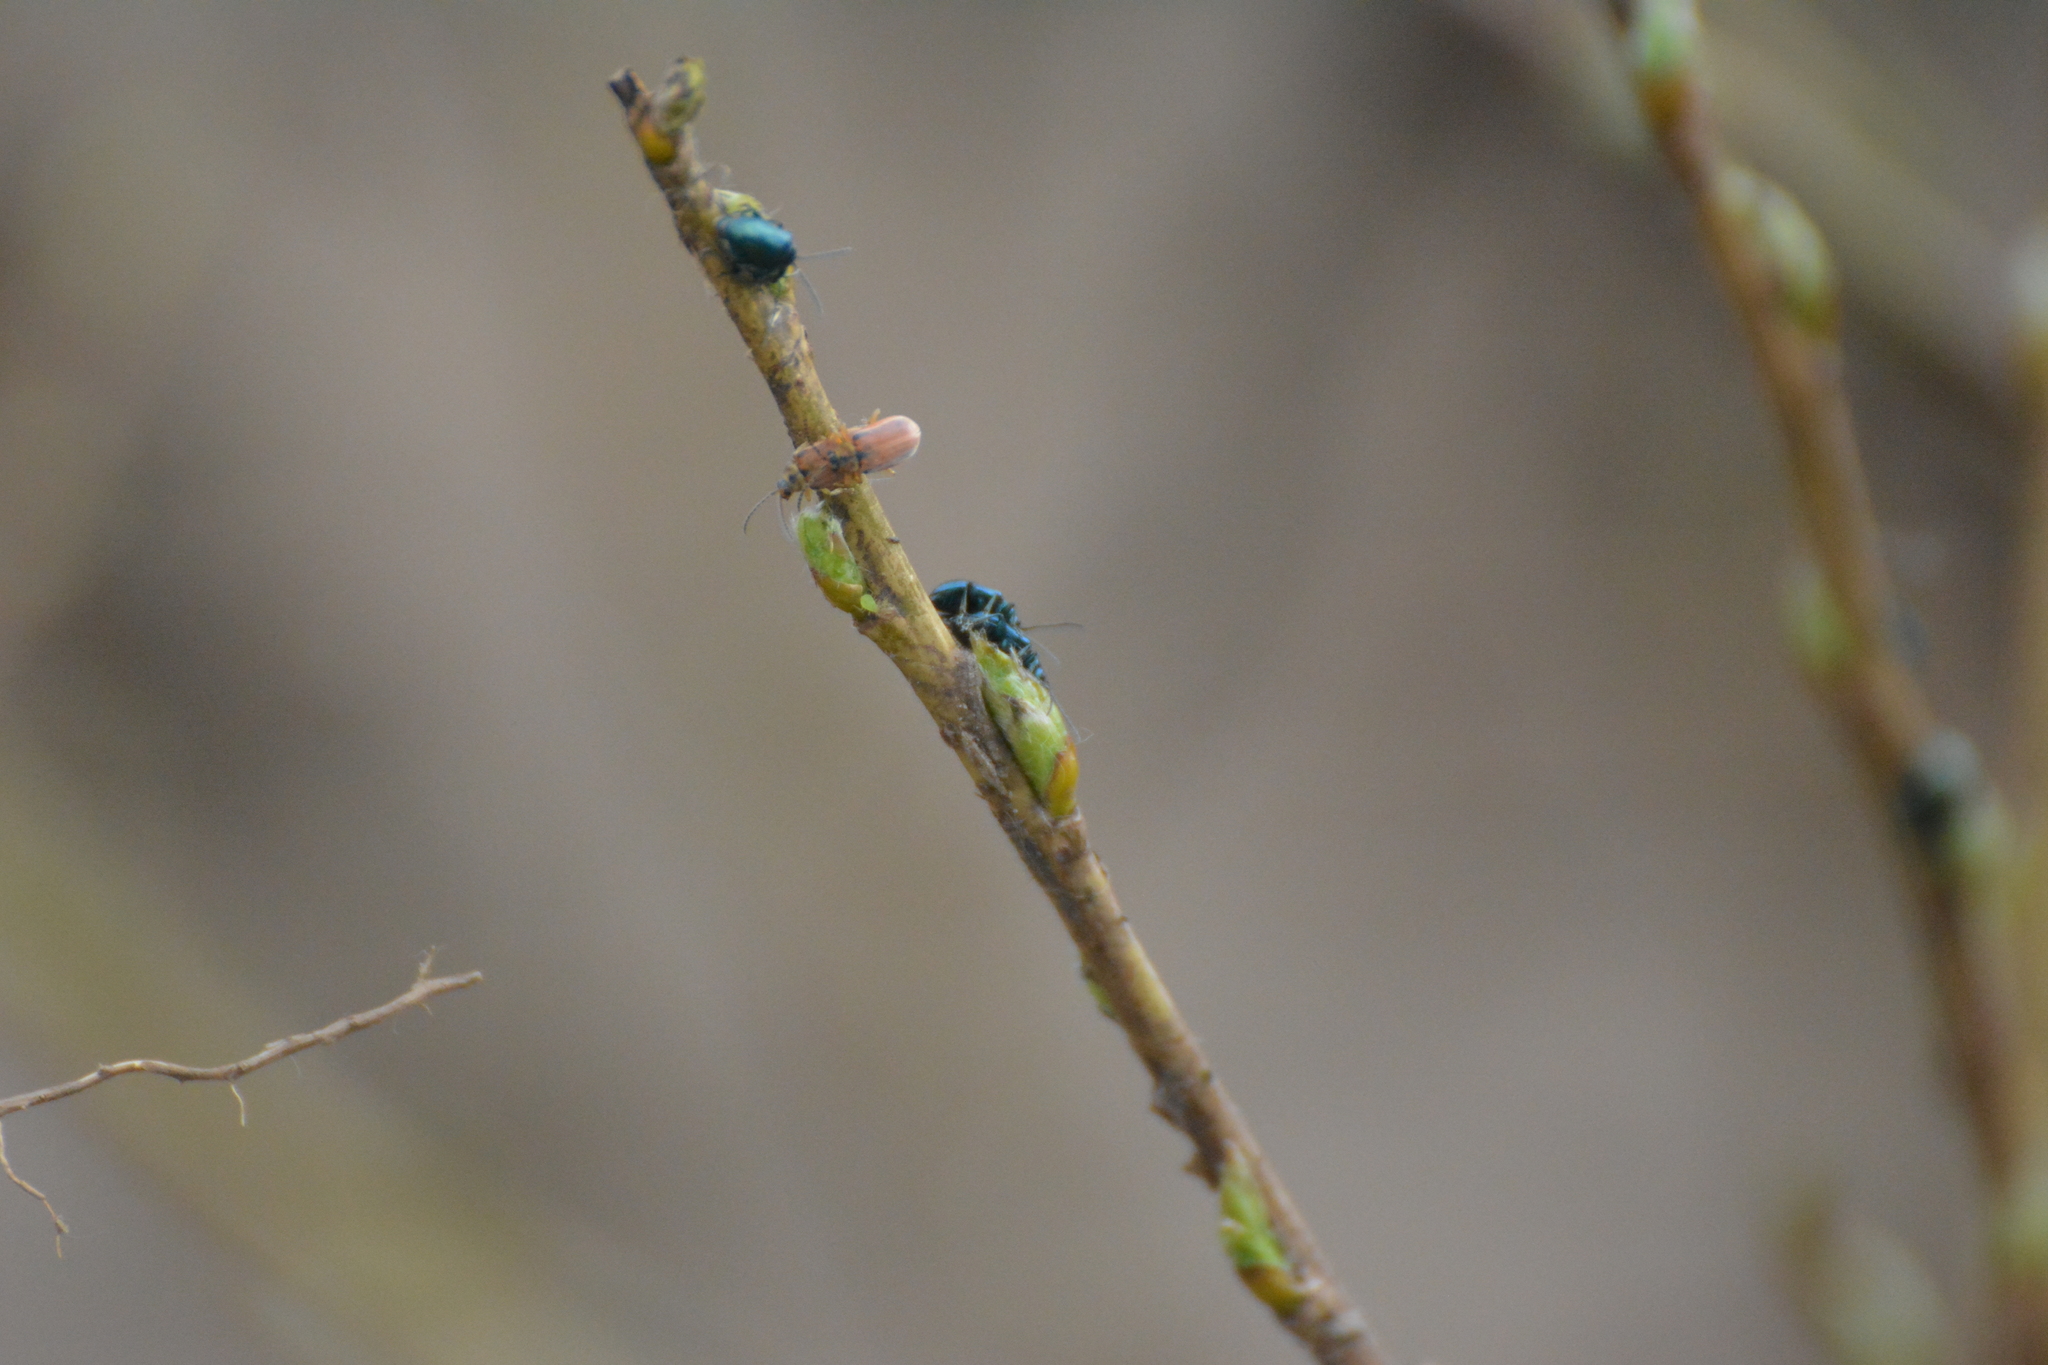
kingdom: Animalia
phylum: Arthropoda
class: Insecta
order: Coleoptera
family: Chrysomelidae
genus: Galerucella
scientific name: Galerucella lineola
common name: Brown willow beetle
